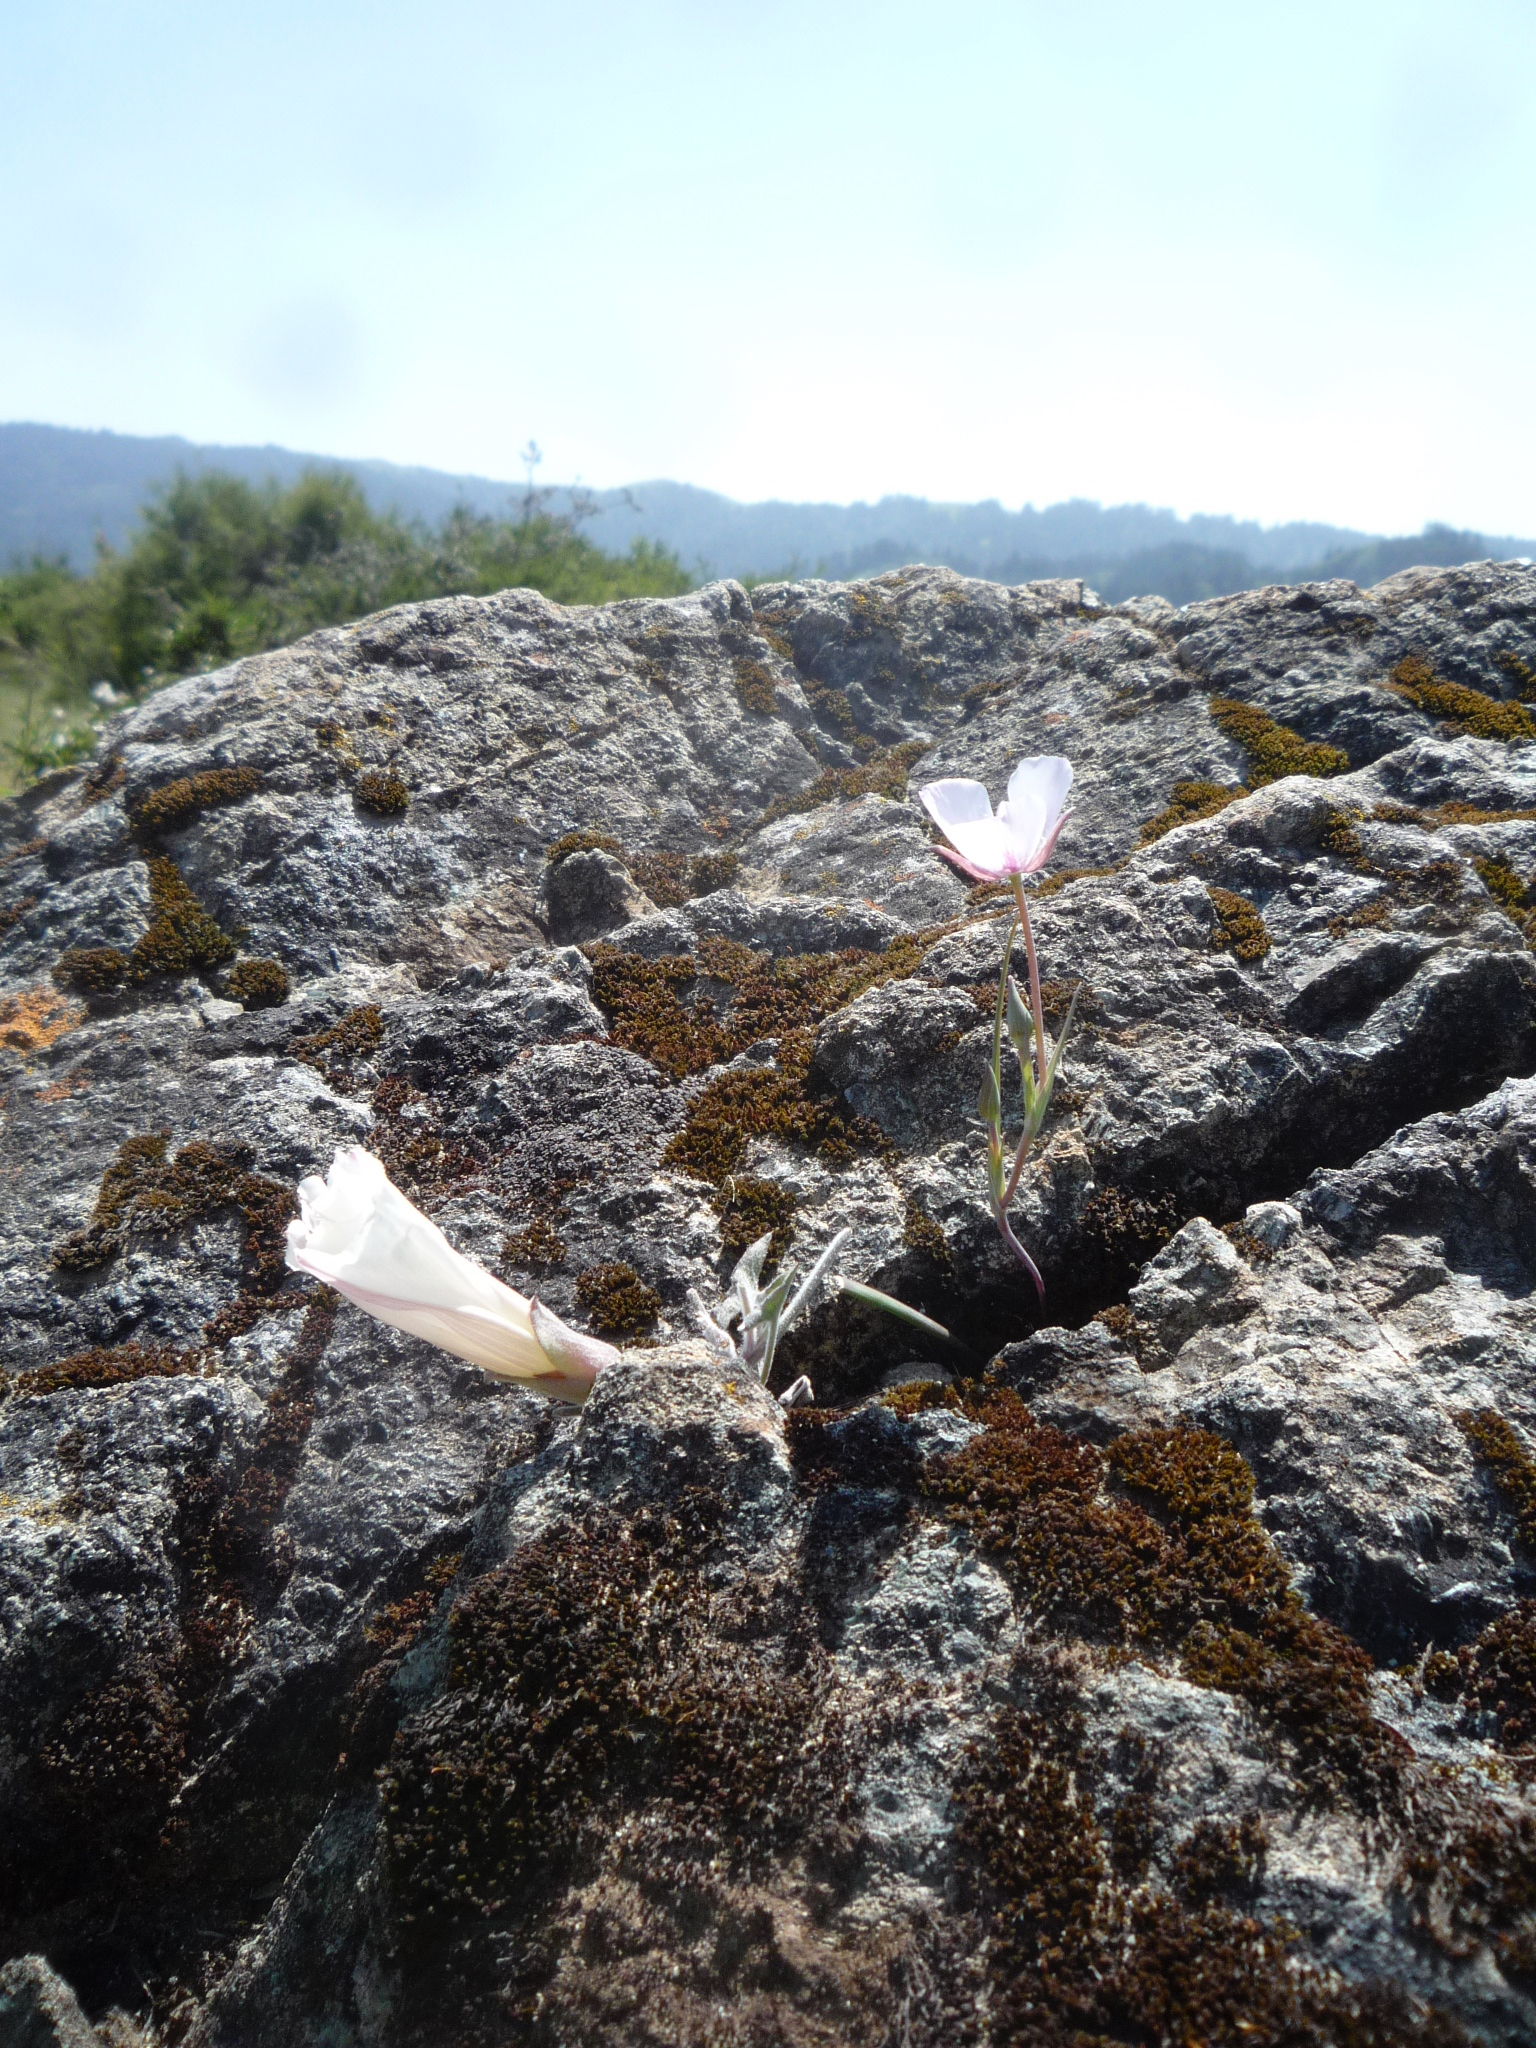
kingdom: Plantae
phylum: Tracheophyta
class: Magnoliopsida
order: Solanales
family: Convolvulaceae
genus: Calystegia
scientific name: Calystegia collina
